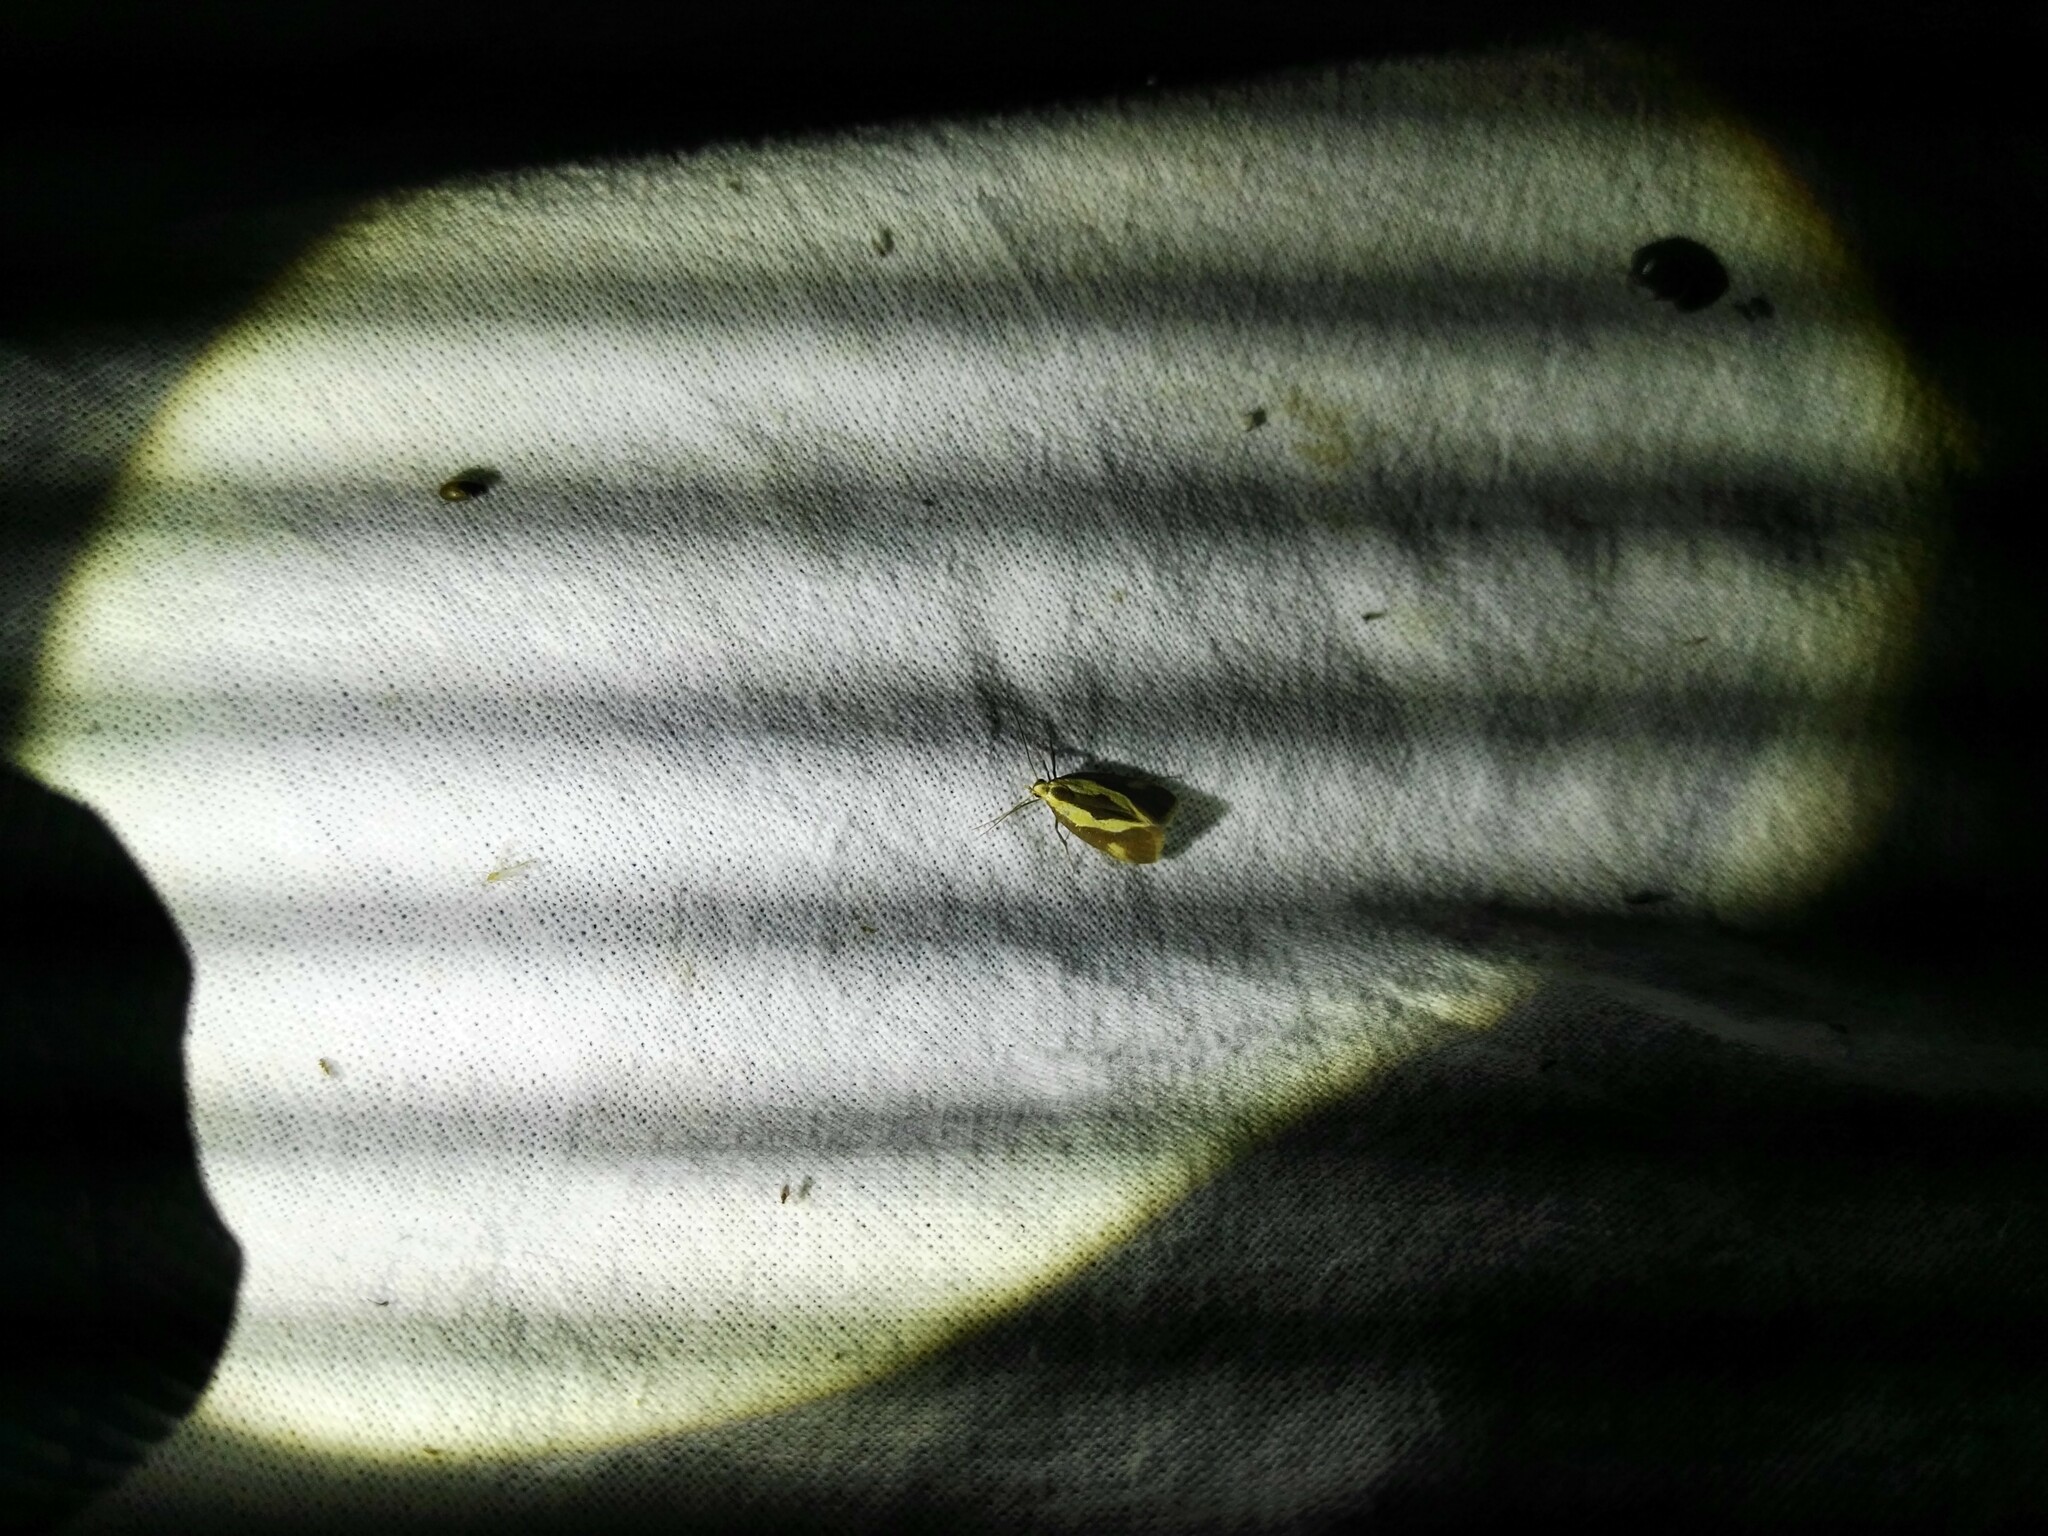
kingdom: Animalia
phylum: Arthropoda
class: Insecta
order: Lepidoptera
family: Oecophoridae
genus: Harpella
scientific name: Harpella forficella
